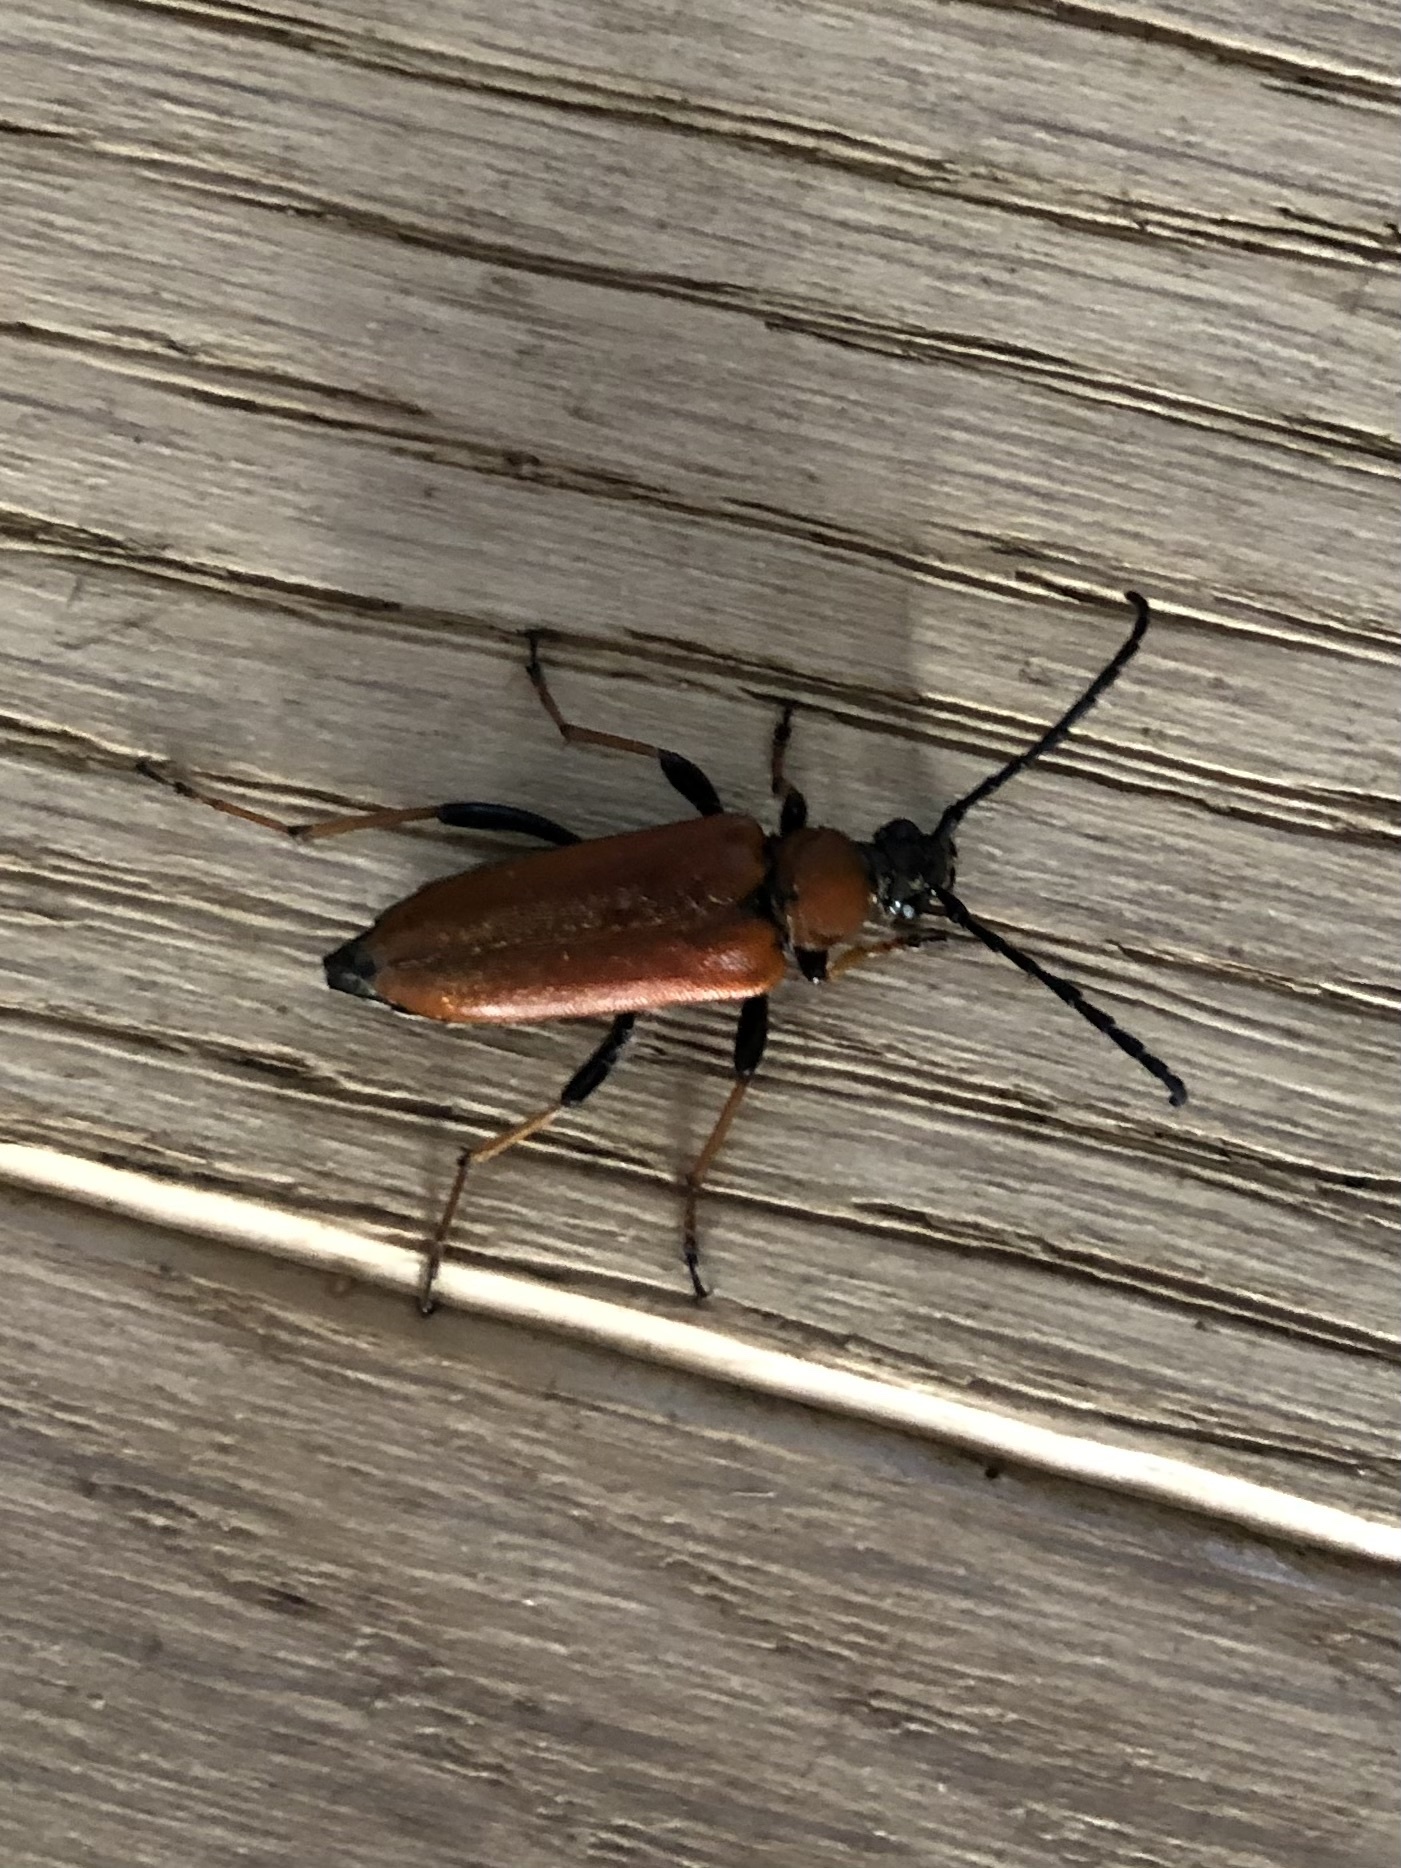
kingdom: Animalia
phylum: Arthropoda
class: Insecta
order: Coleoptera
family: Cerambycidae
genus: Stictoleptura
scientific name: Stictoleptura rubra
